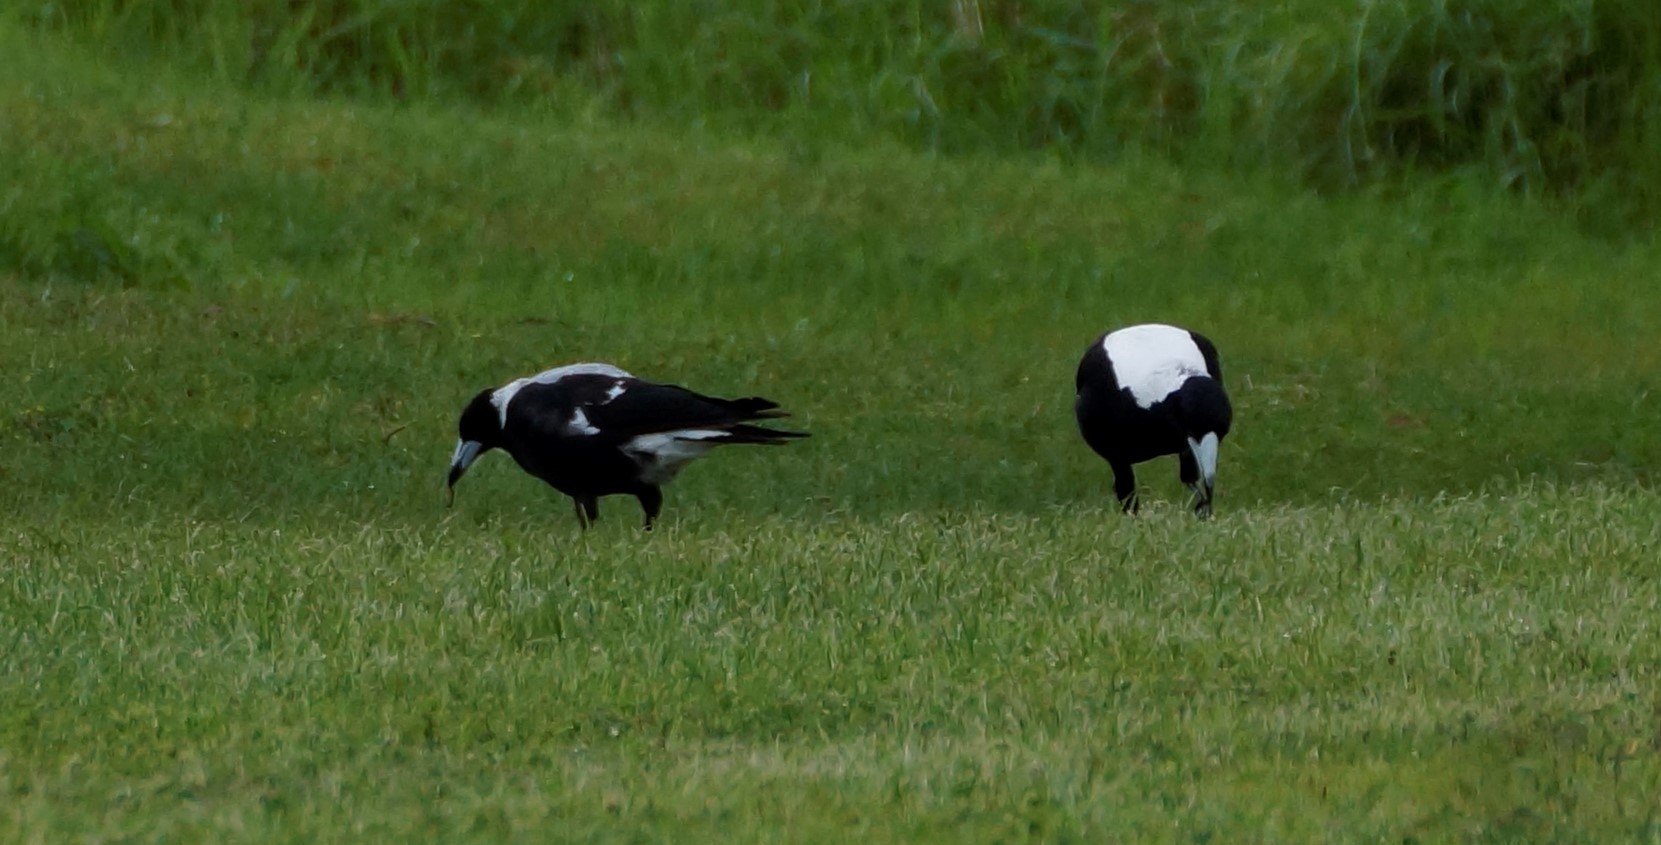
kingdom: Animalia
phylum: Chordata
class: Aves
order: Passeriformes
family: Cracticidae
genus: Gymnorhina
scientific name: Gymnorhina tibicen
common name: Australian magpie
